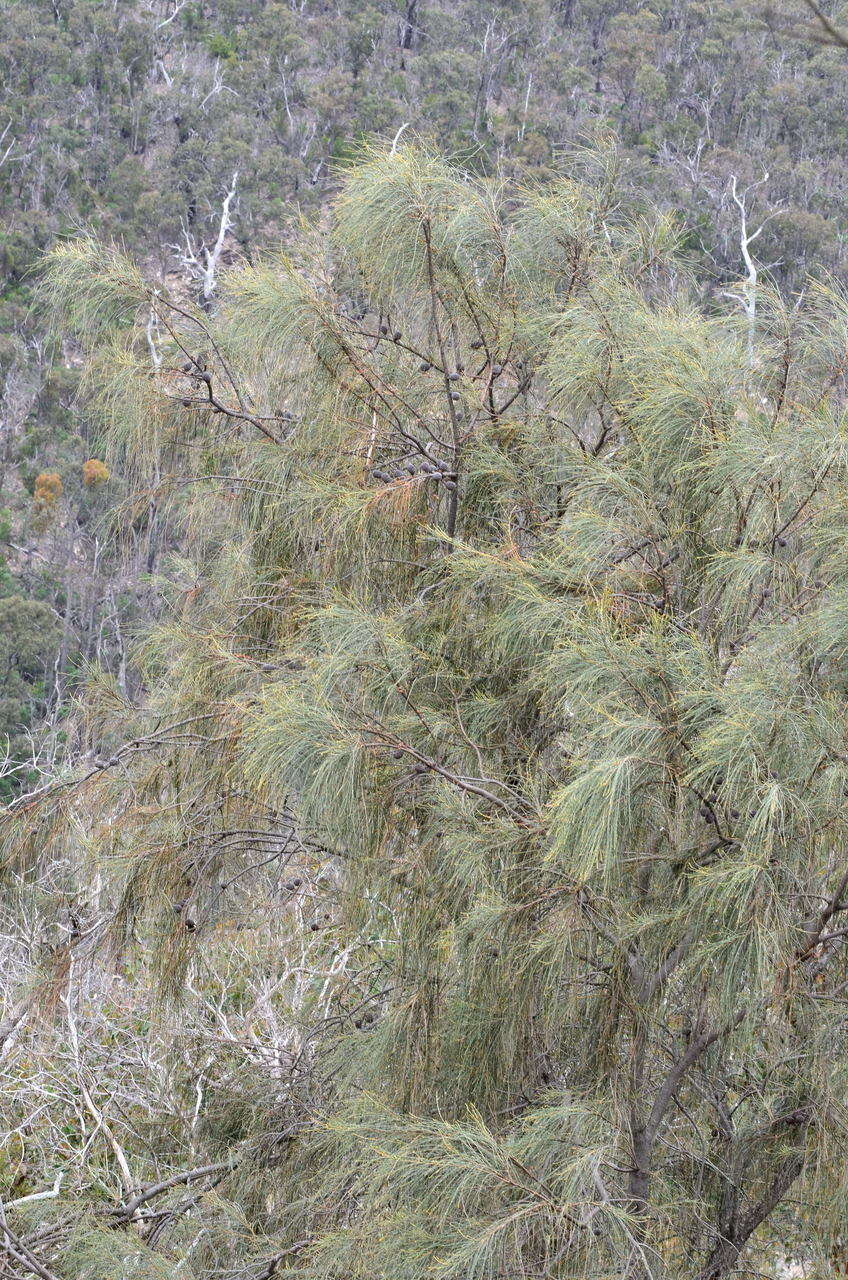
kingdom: Plantae
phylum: Tracheophyta
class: Magnoliopsida
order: Fagales
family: Casuarinaceae
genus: Allocasuarina
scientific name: Allocasuarina verticillata
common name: Drooping she-oak
